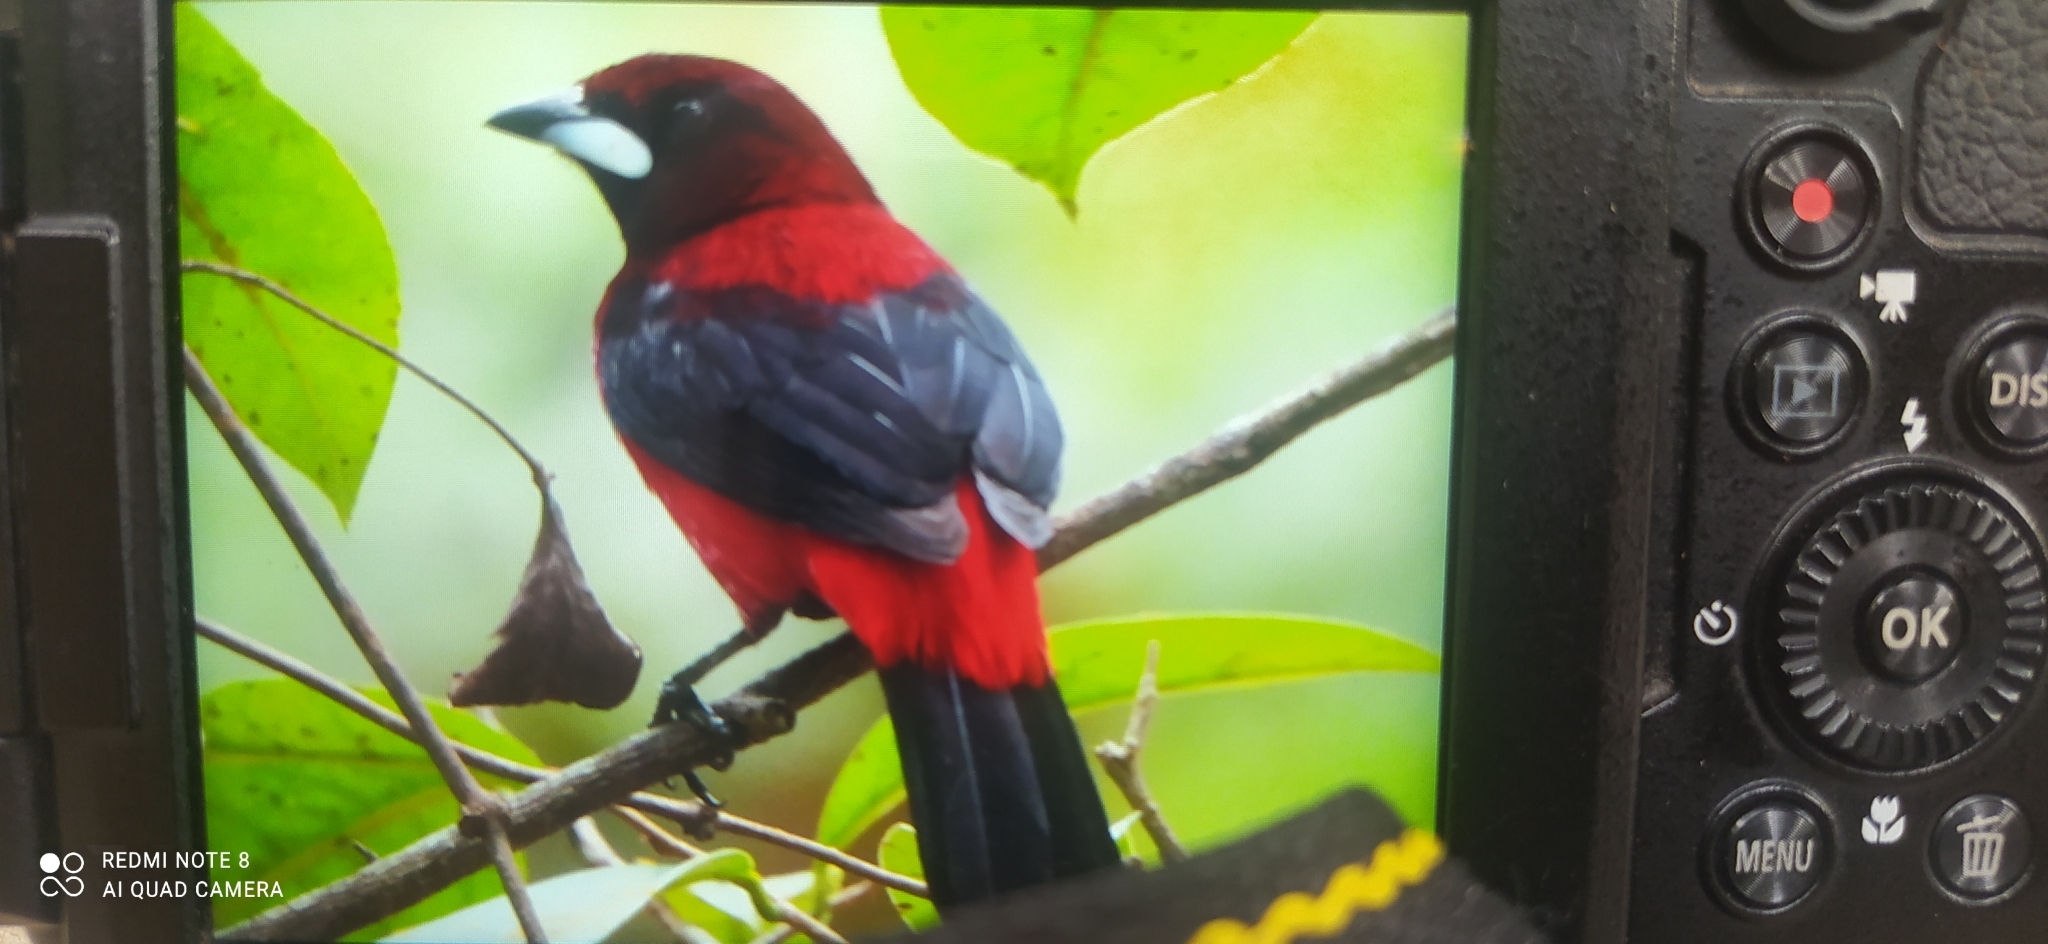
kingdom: Animalia
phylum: Chordata
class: Aves
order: Passeriformes
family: Thraupidae
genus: Ramphocelus
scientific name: Ramphocelus dimidiatus
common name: Crimson-backed tanager
